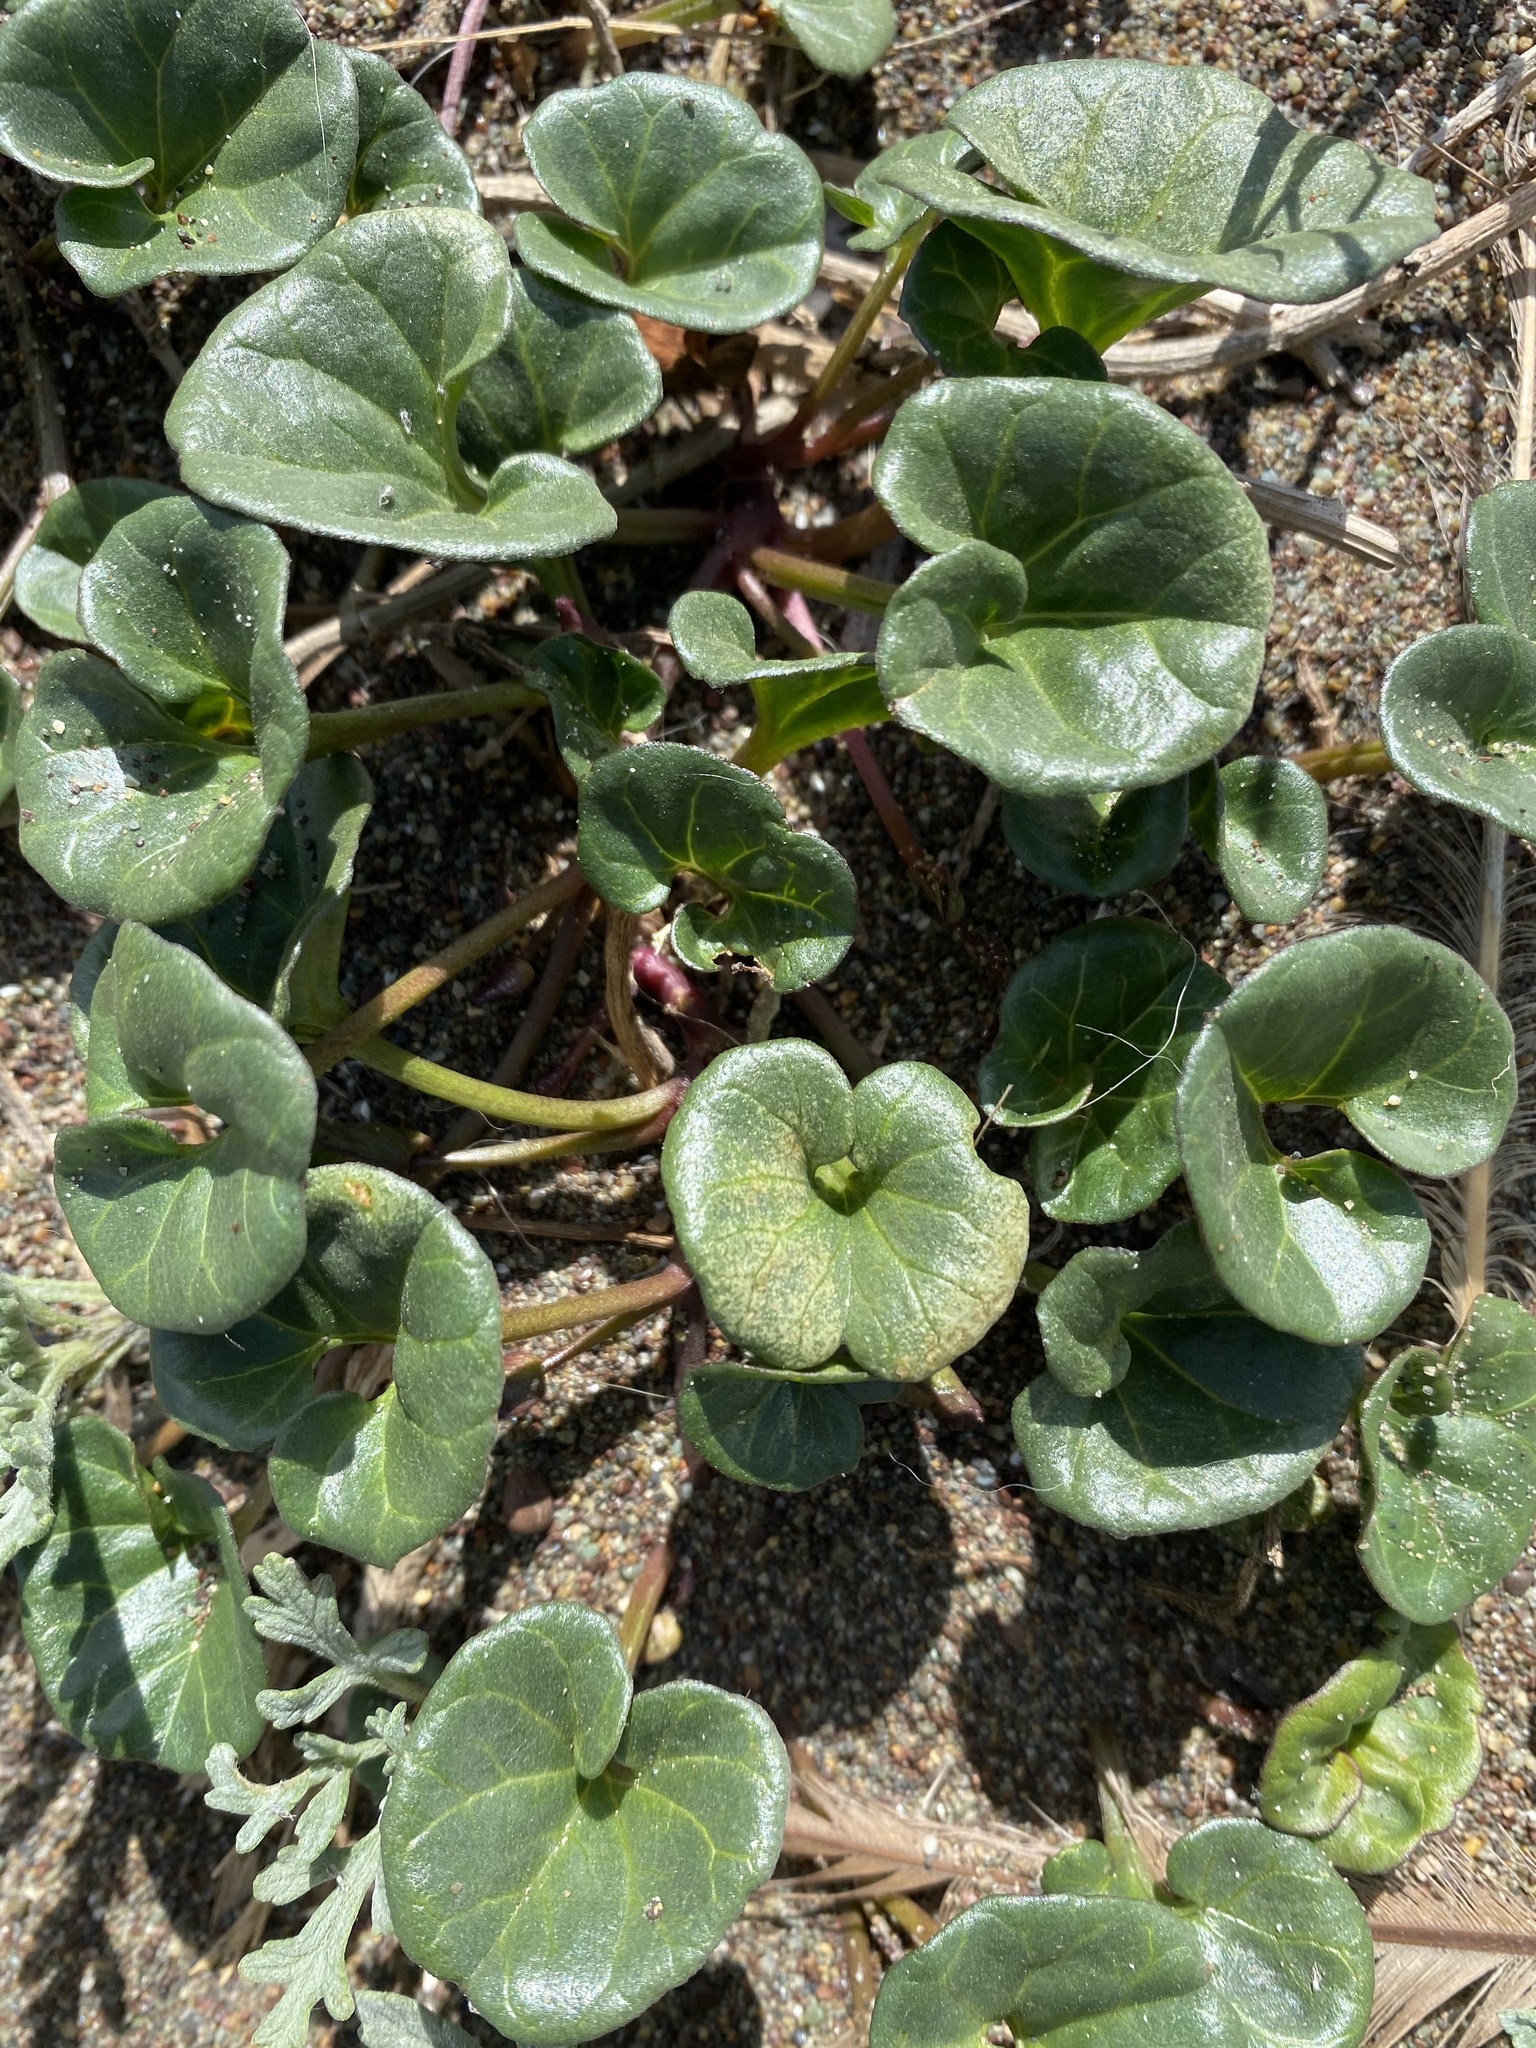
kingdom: Plantae
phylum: Tracheophyta
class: Magnoliopsida
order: Solanales
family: Convolvulaceae
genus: Calystegia
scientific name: Calystegia soldanella
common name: Sea bindweed
